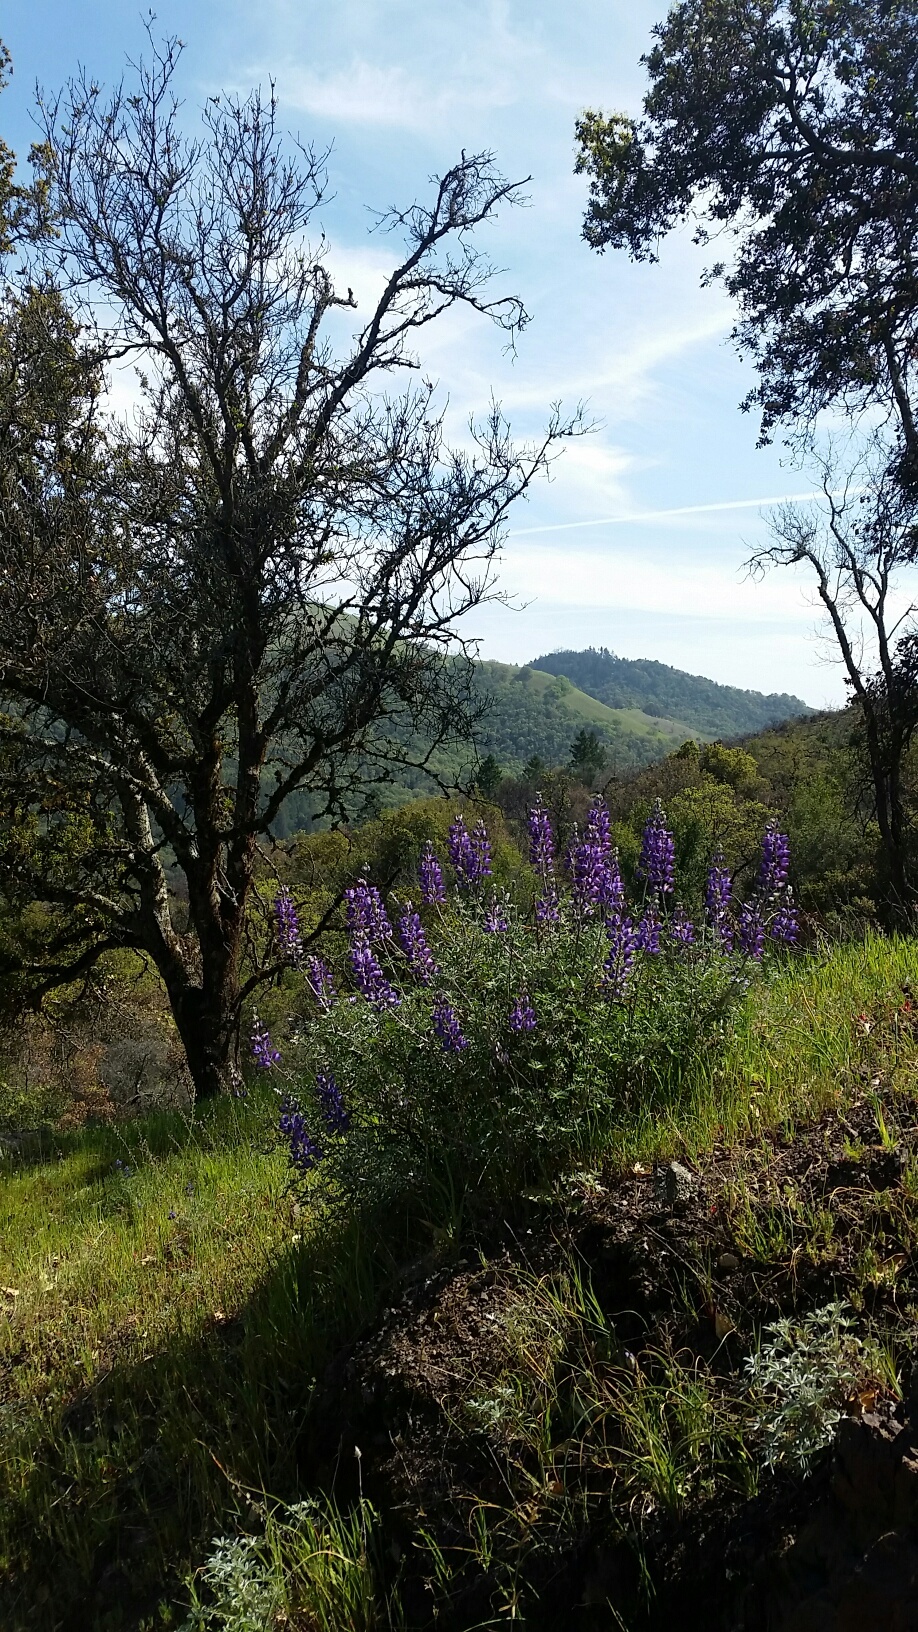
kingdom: Plantae
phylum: Tracheophyta
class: Magnoliopsida
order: Fabales
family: Fabaceae
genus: Lupinus
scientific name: Lupinus albifrons
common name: Foothill lupine
